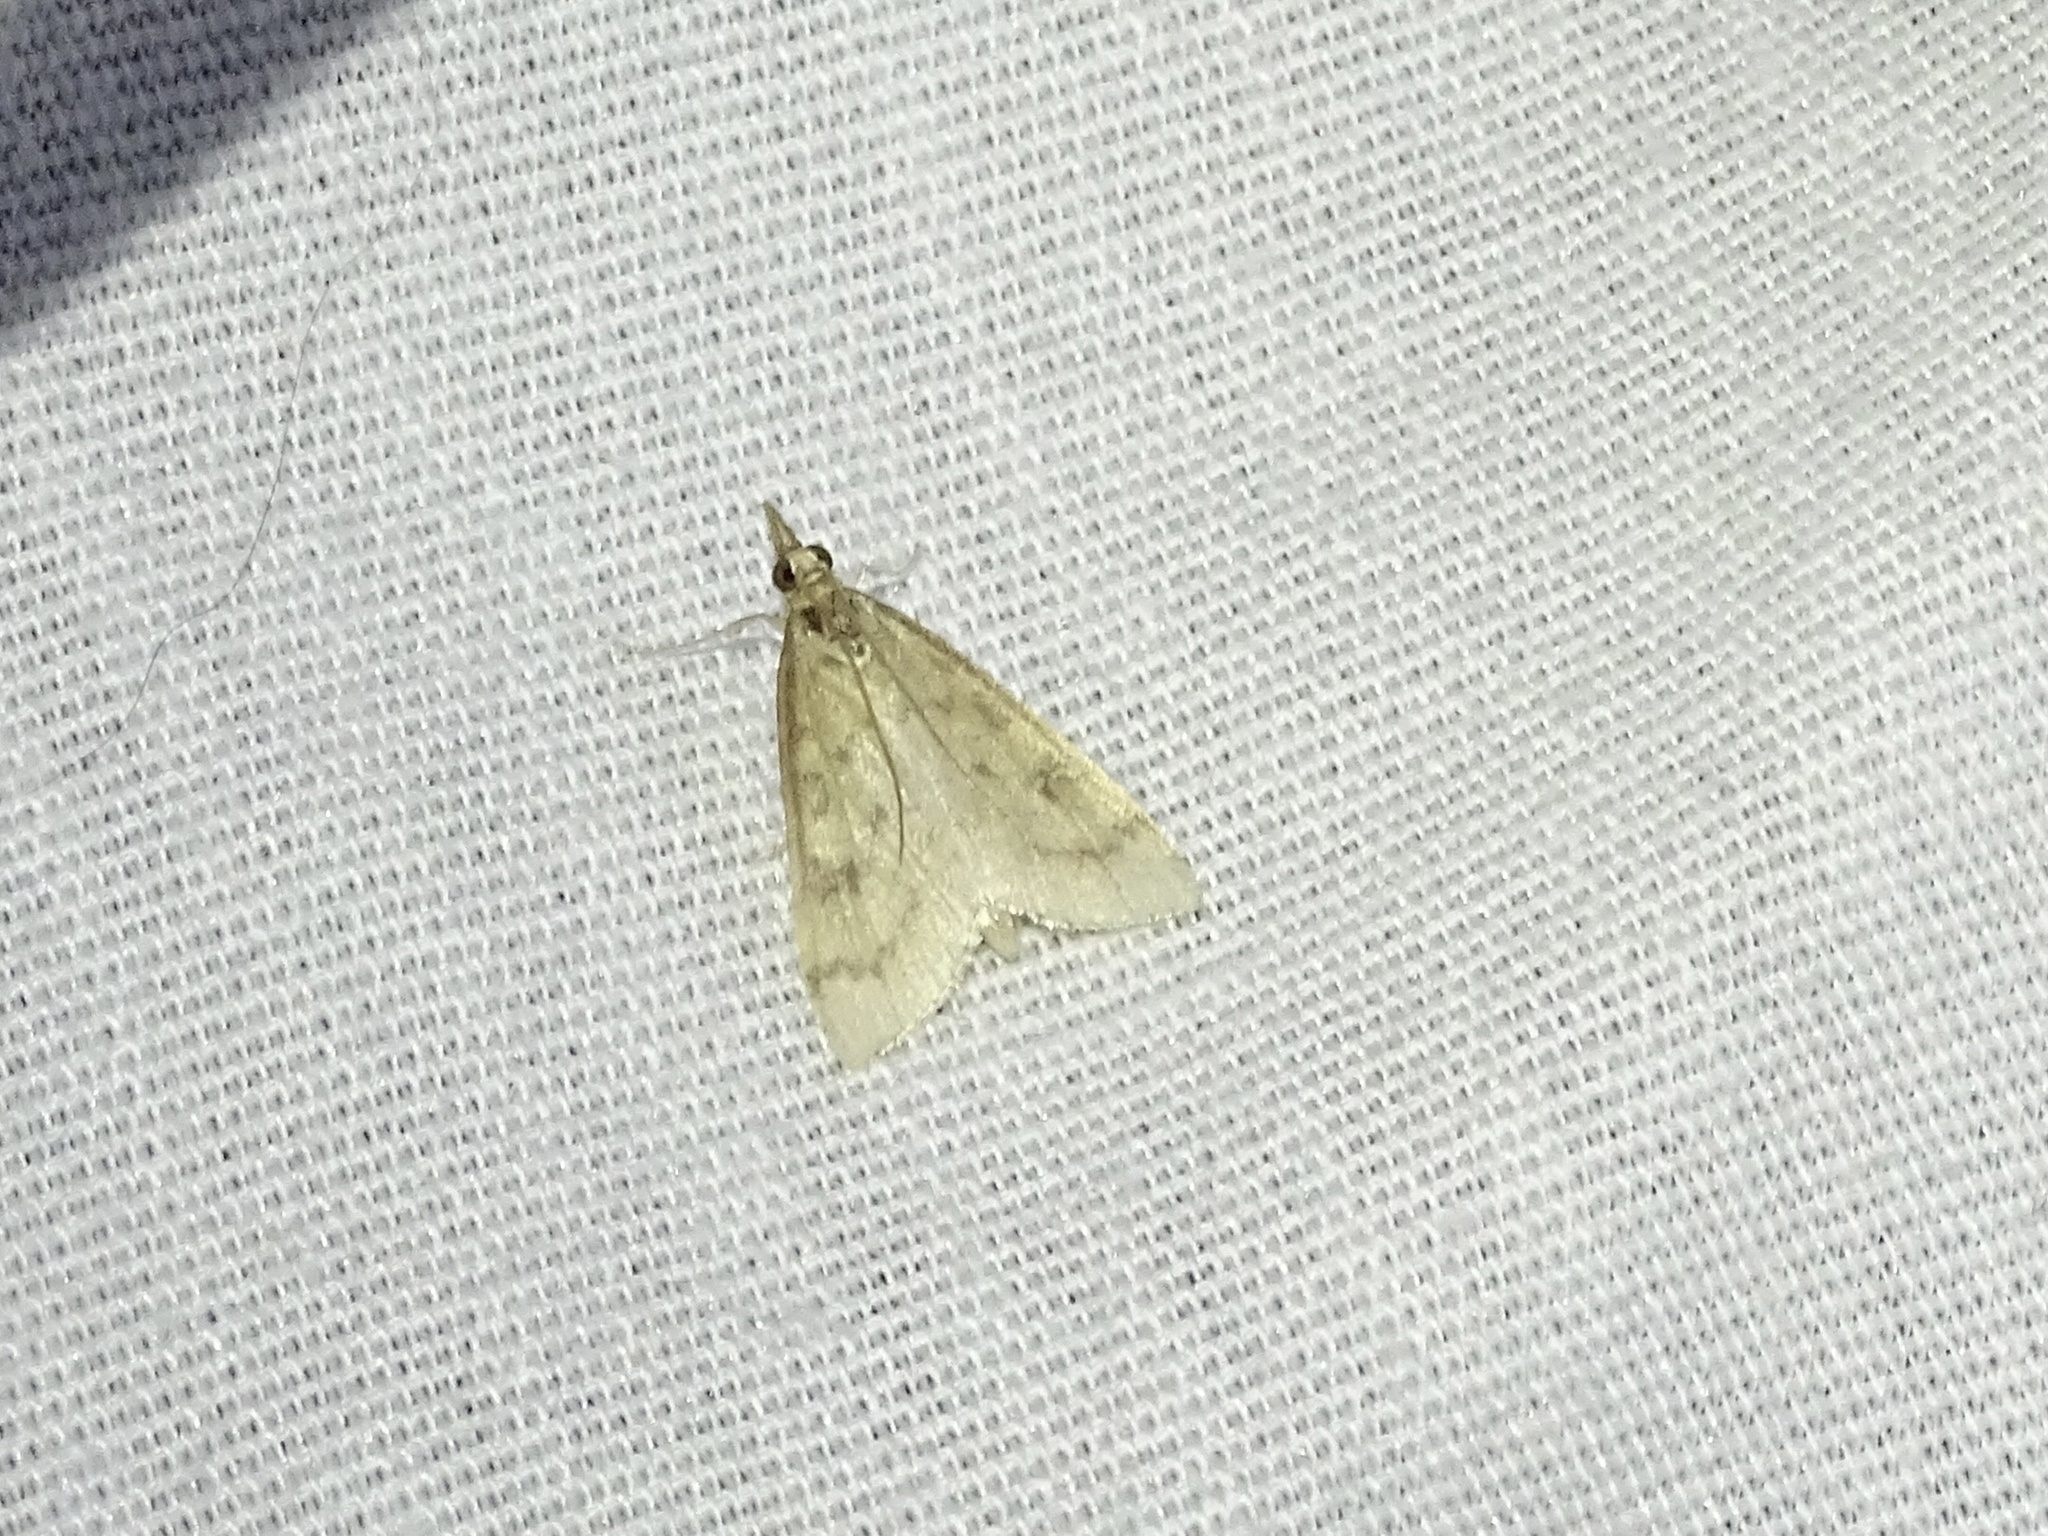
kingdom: Animalia
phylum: Arthropoda
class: Insecta
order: Lepidoptera
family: Crambidae
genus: Udea
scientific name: Udea rubigalis
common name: Celery leaftier moth
